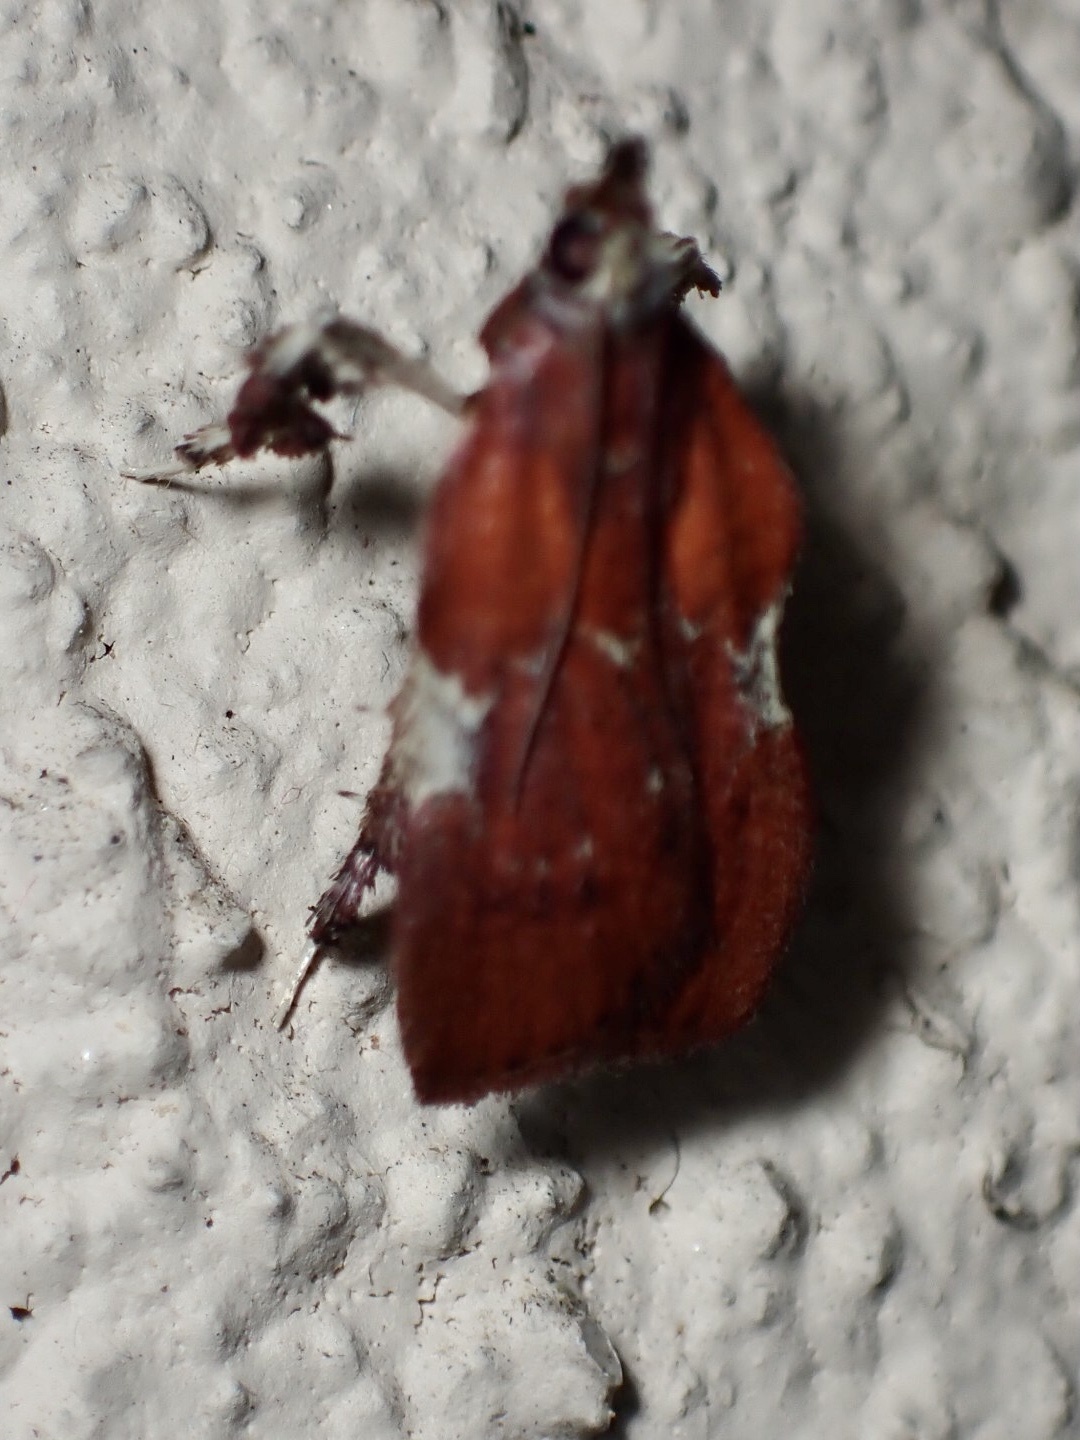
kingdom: Animalia
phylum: Arthropoda
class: Insecta
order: Lepidoptera
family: Pyralidae
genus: Galasa
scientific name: Galasa nigrinodis
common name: Boxwood leaftier moth
